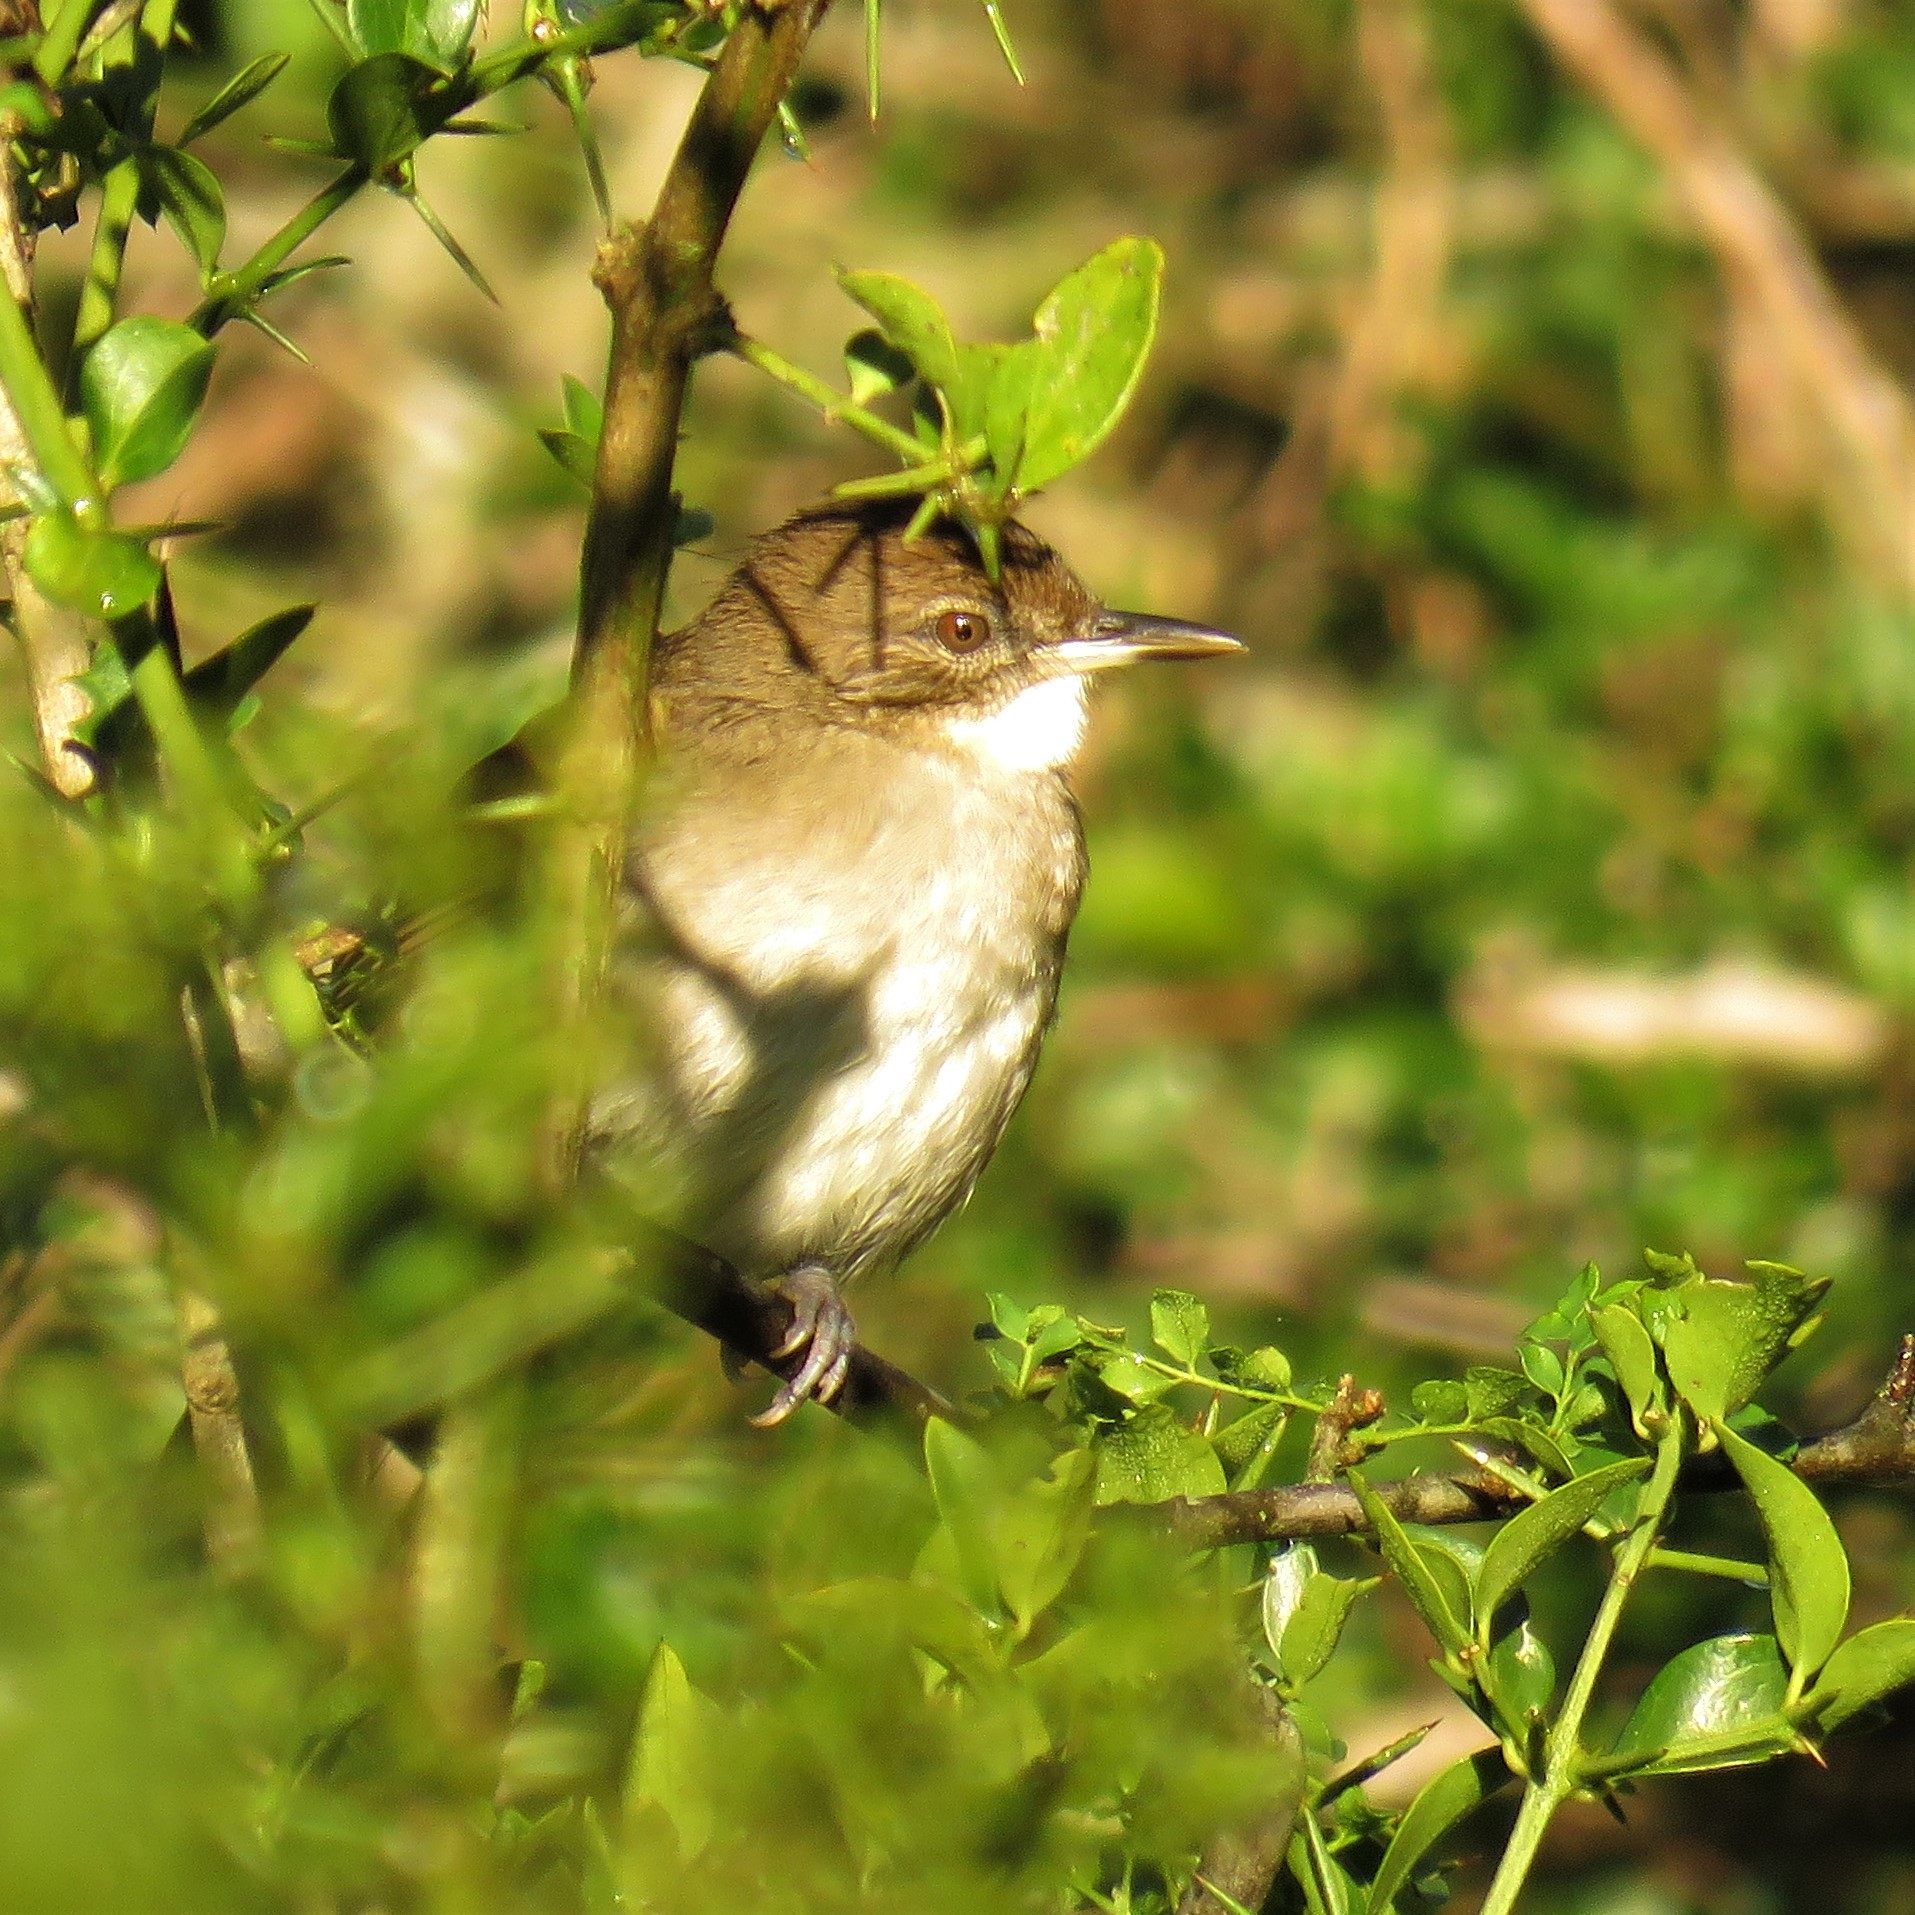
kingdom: Animalia
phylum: Chordata
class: Aves
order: Passeriformes
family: Pycnonotidae
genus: Phyllastrephus
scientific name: Phyllastrephus terrestris
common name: Terrestrial brownbul
